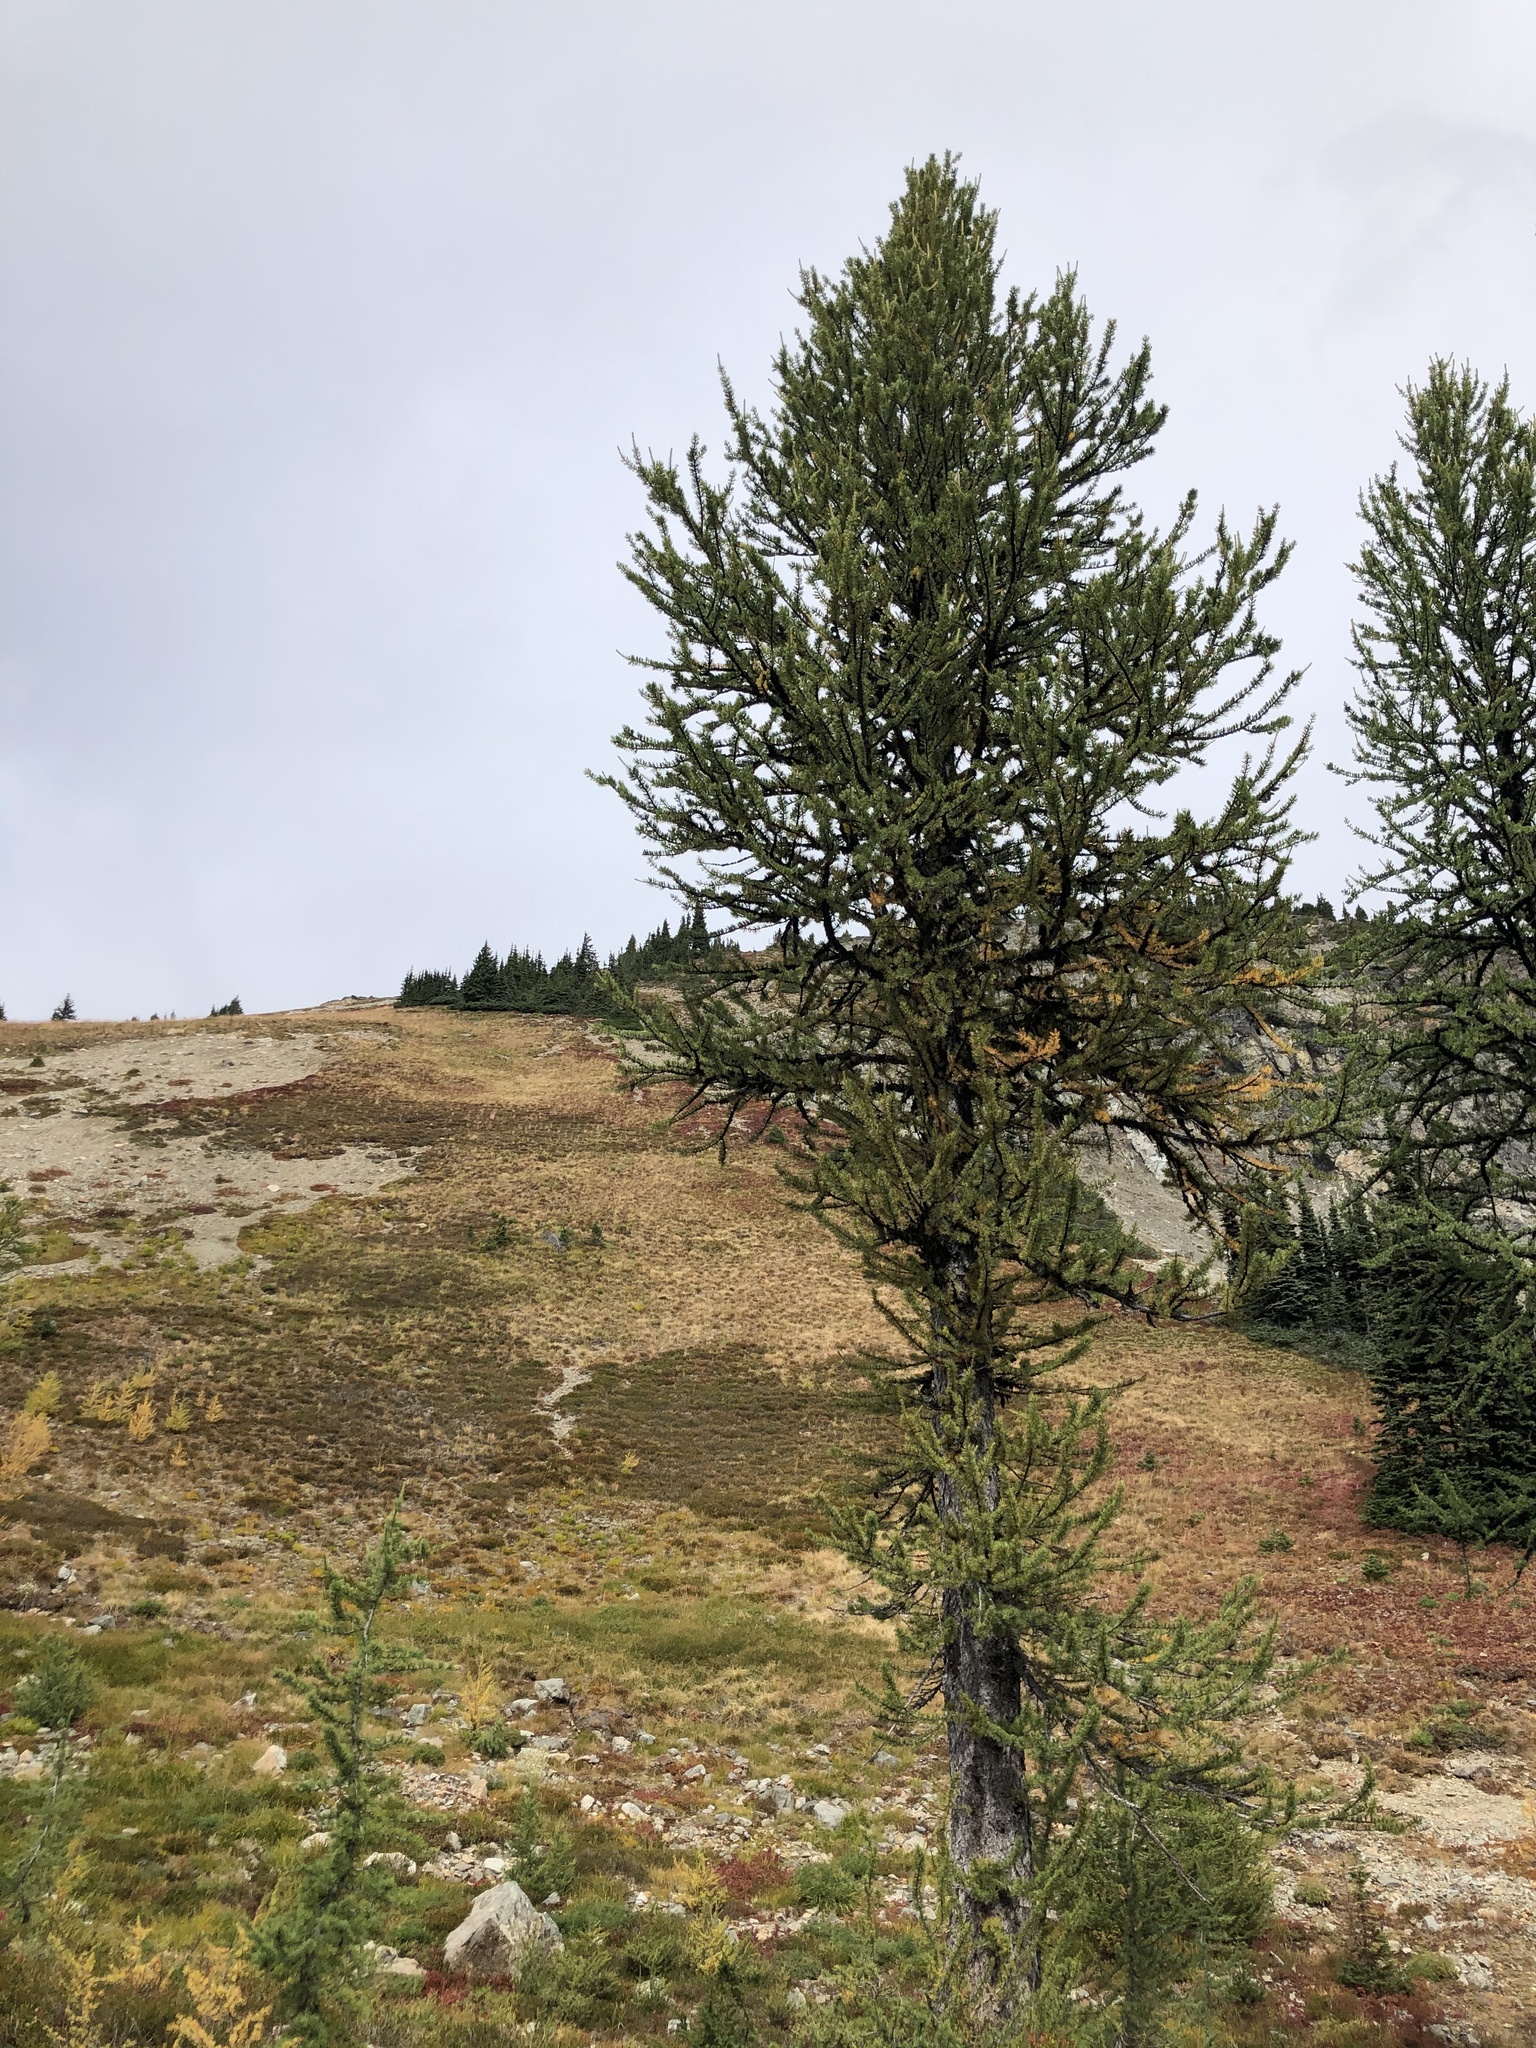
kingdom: Plantae
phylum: Tracheophyta
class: Pinopsida
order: Pinales
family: Pinaceae
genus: Larix
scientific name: Larix lyallii
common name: Alpine larch
